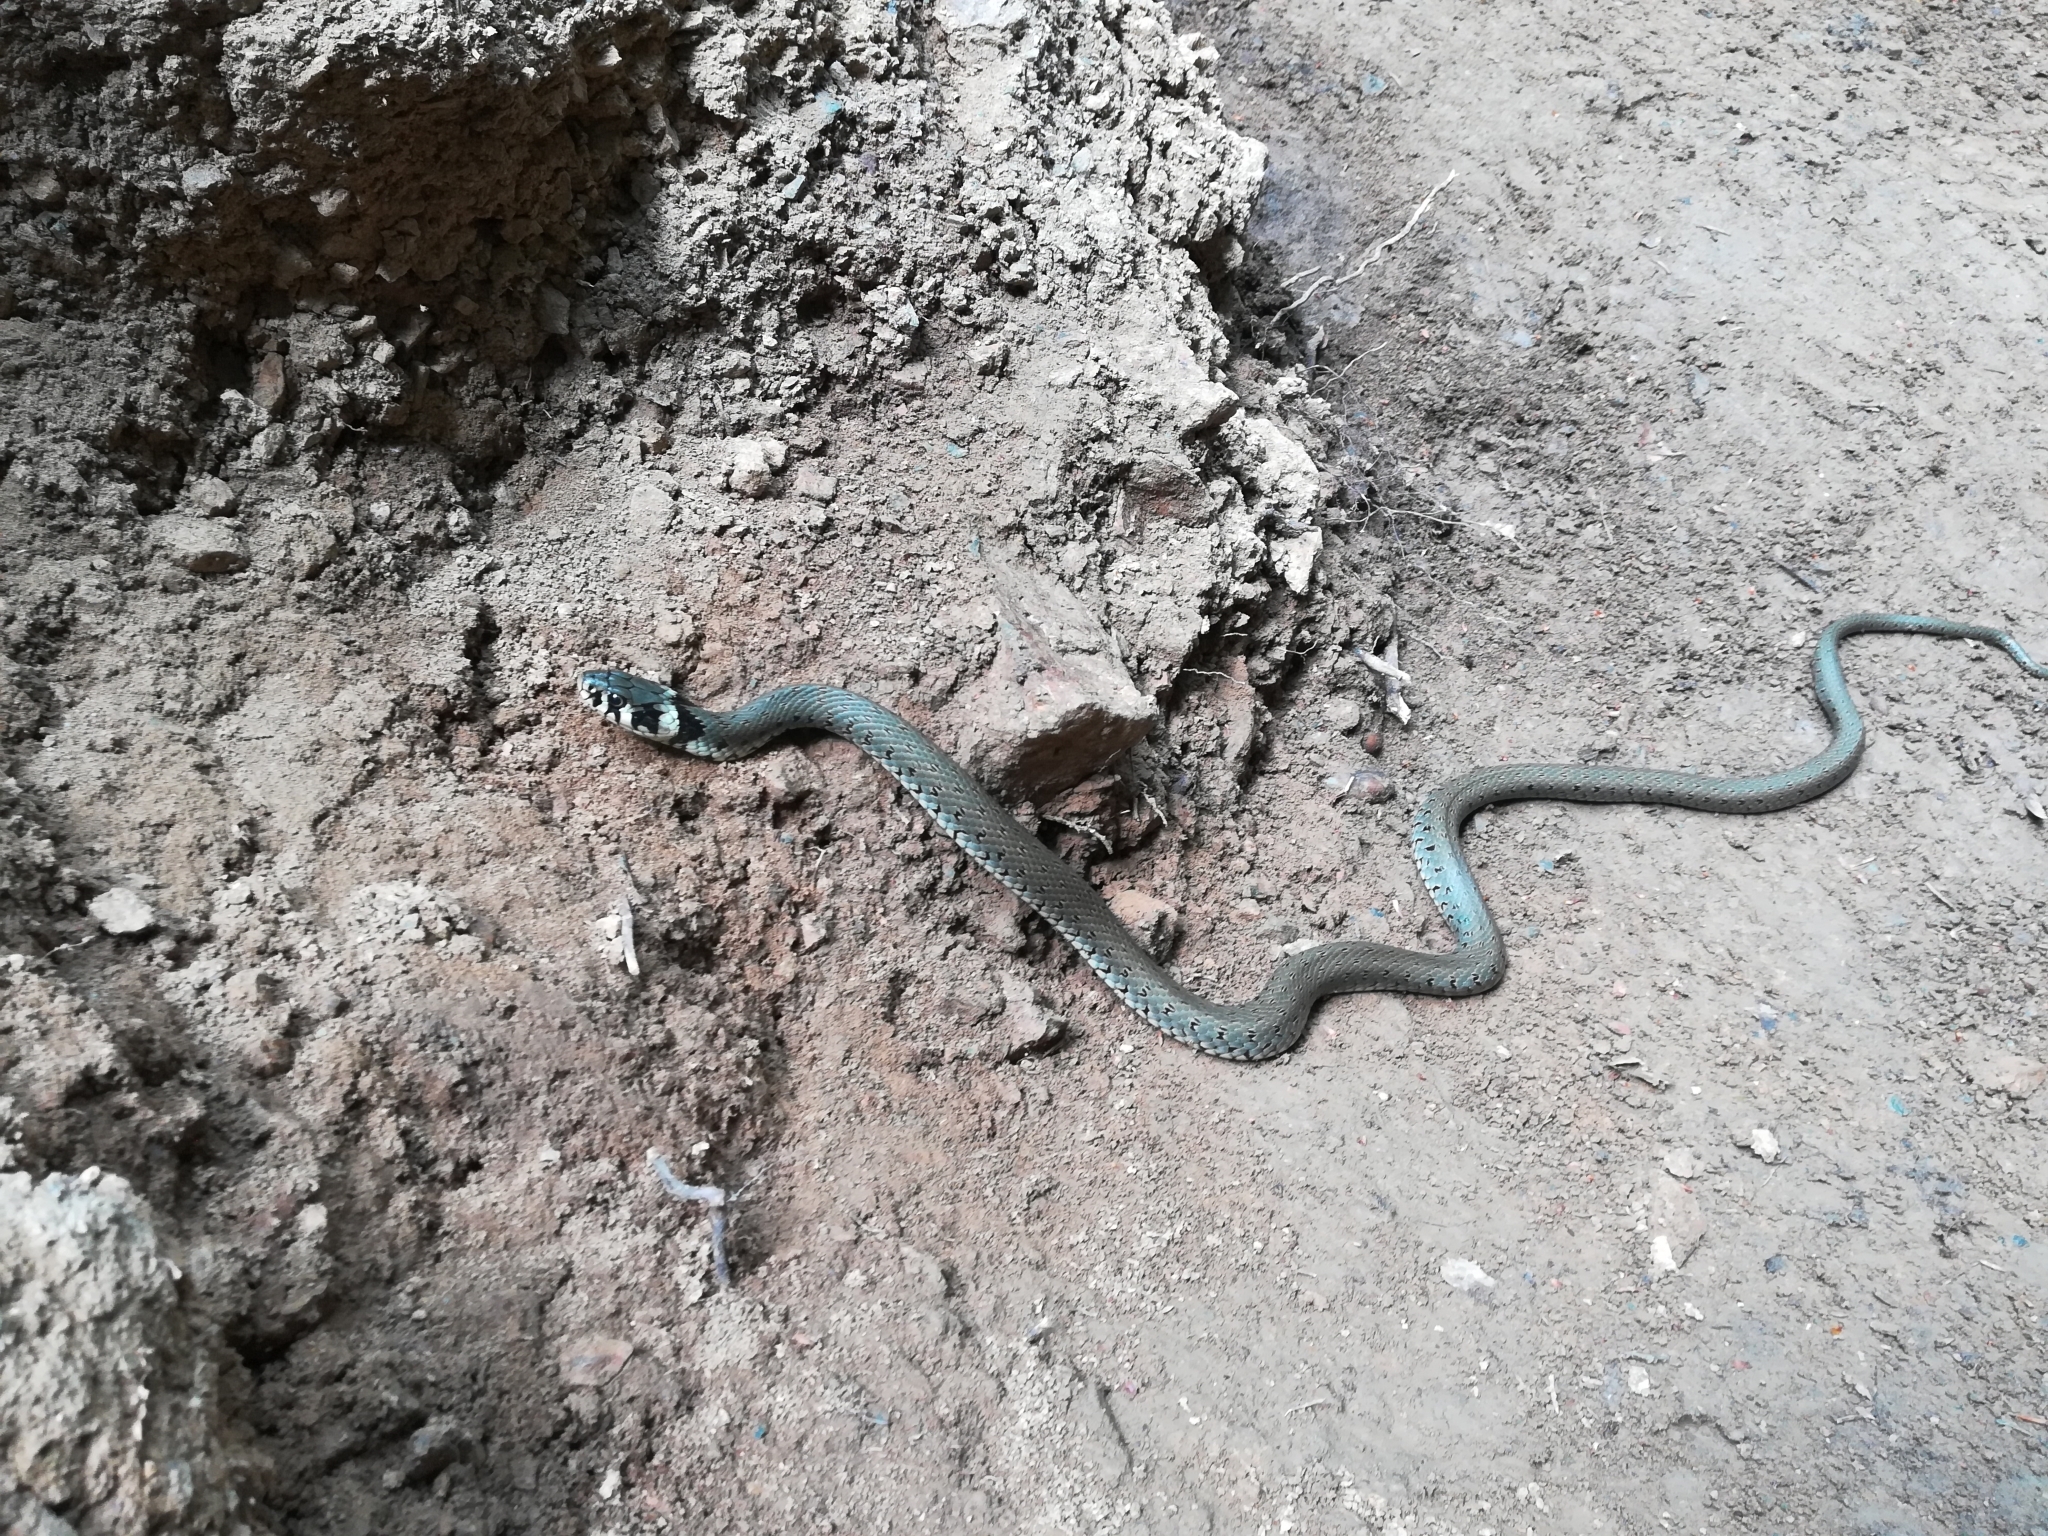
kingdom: Animalia
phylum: Chordata
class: Squamata
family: Colubridae
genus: Natrix
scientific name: Natrix natrix
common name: Grass snake
